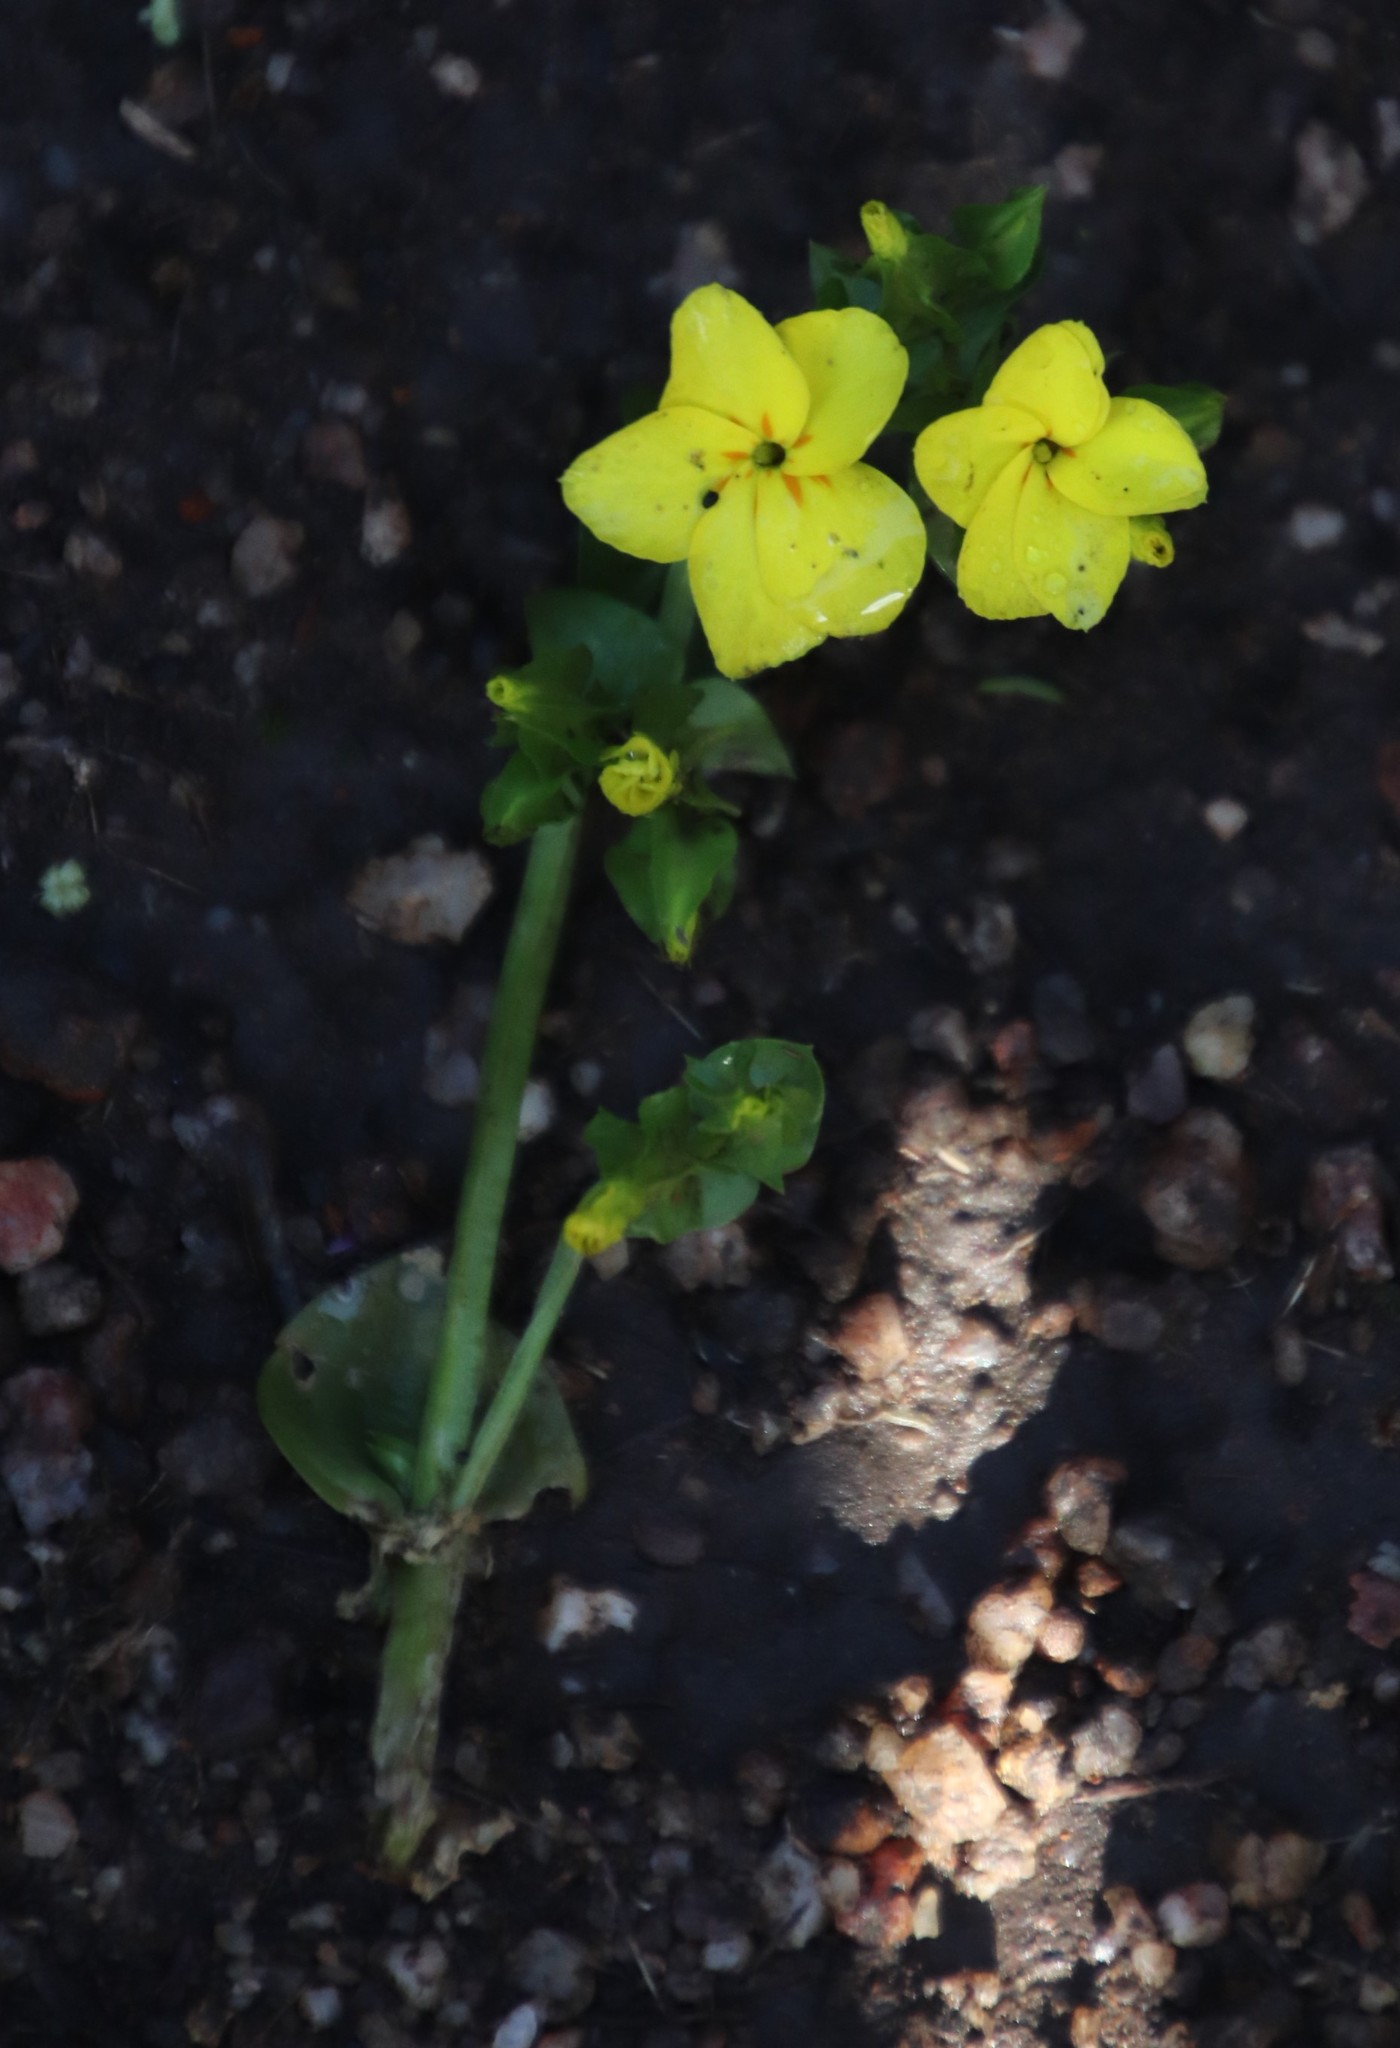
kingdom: Plantae
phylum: Tracheophyta
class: Magnoliopsida
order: Gentianales
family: Gentianaceae
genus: Sebaea
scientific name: Sebaea exacoides
